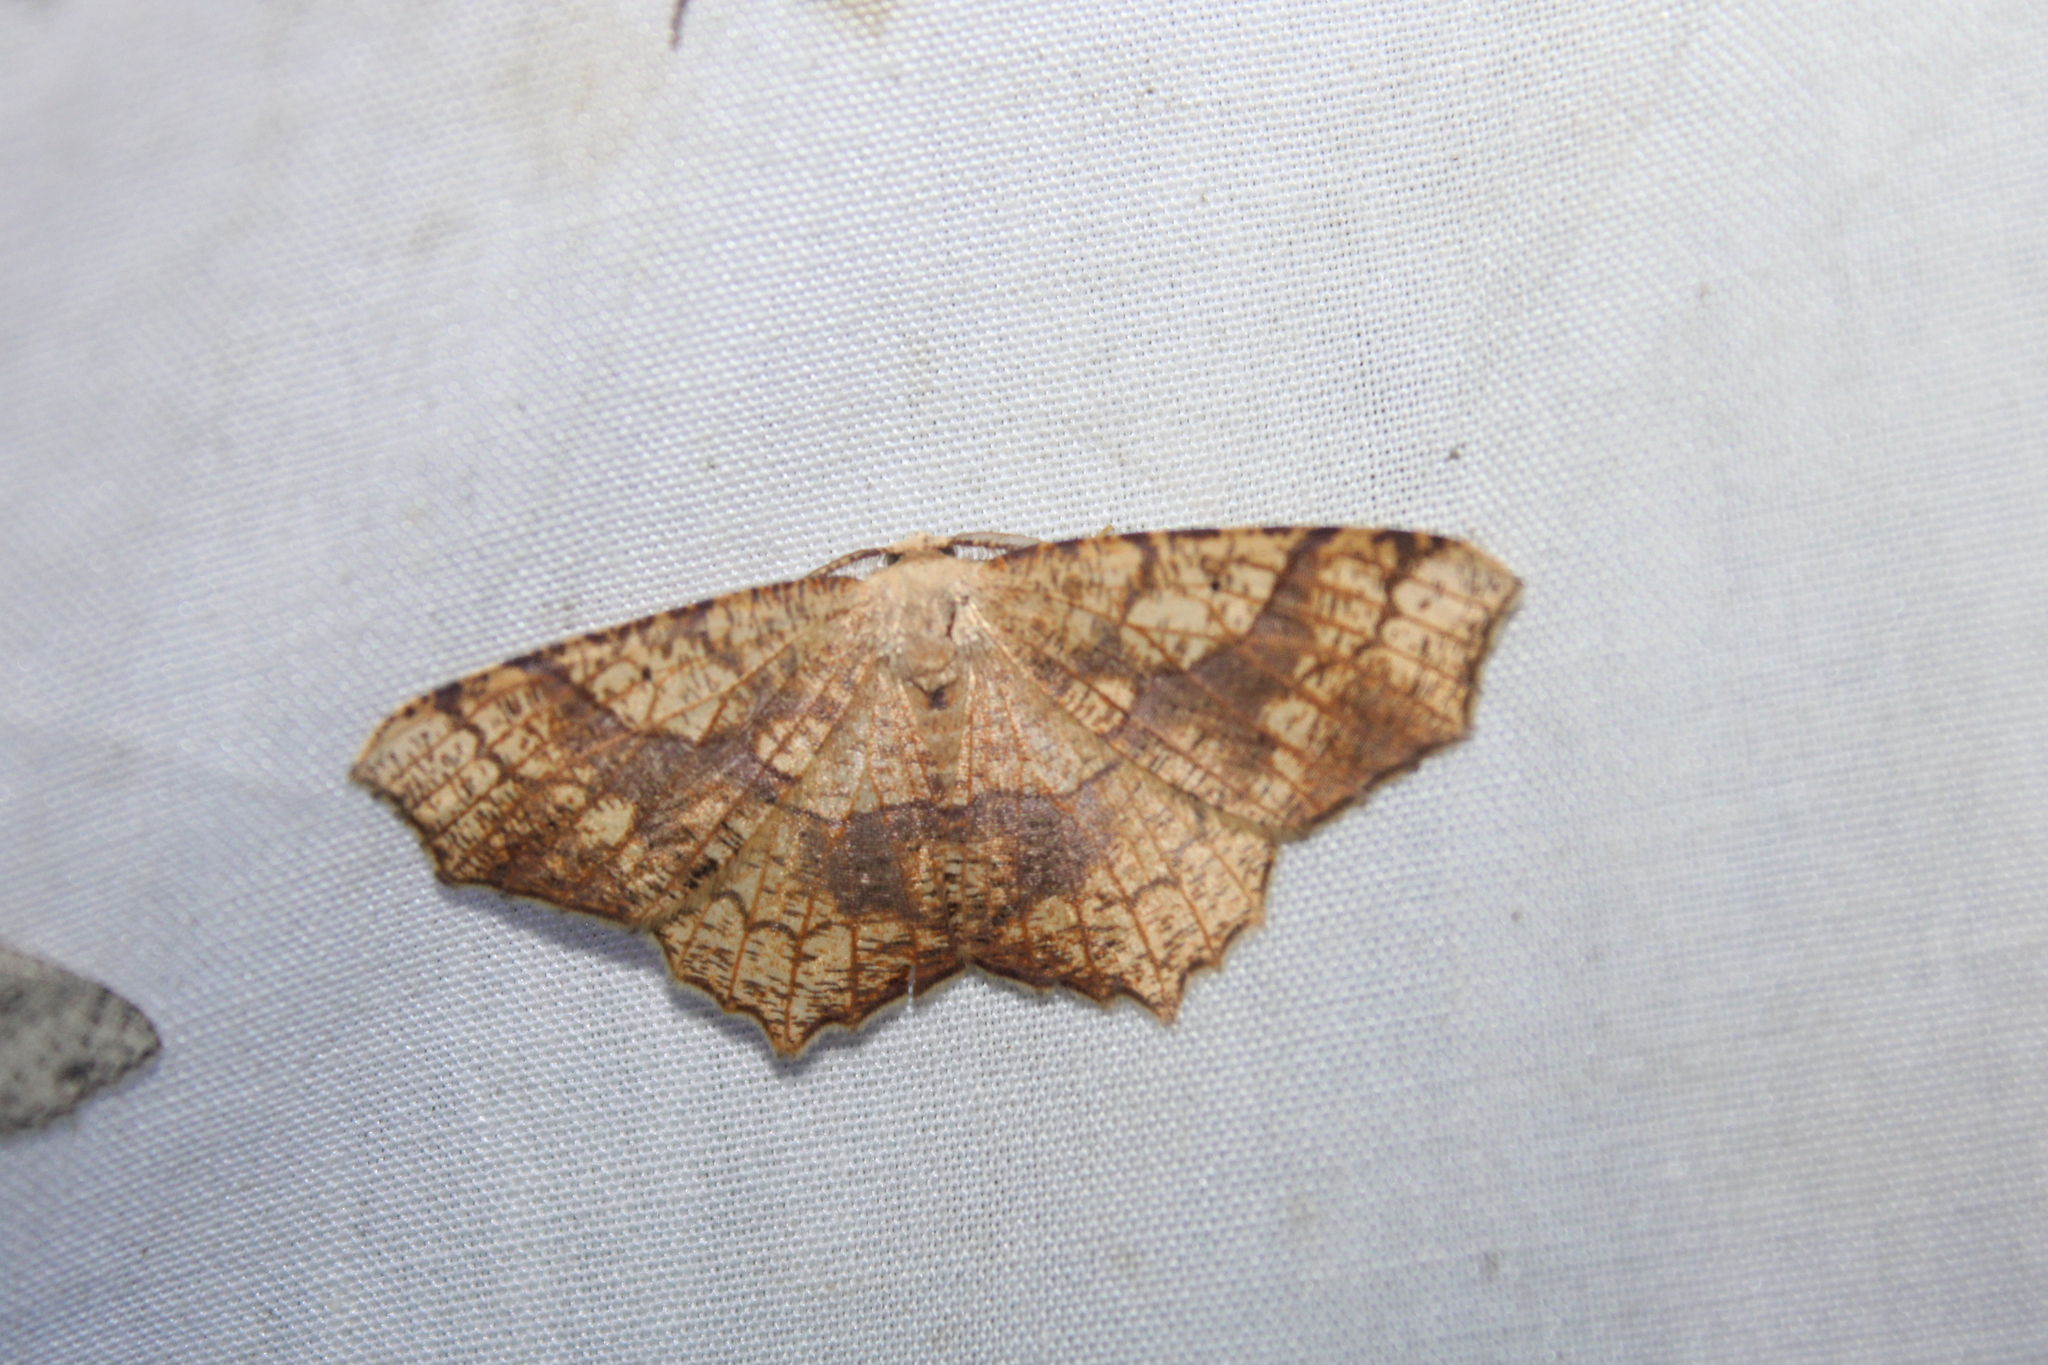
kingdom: Animalia
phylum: Arthropoda
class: Insecta
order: Lepidoptera
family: Geometridae
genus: Besma
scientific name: Besma quercivoraria
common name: Oak besma
